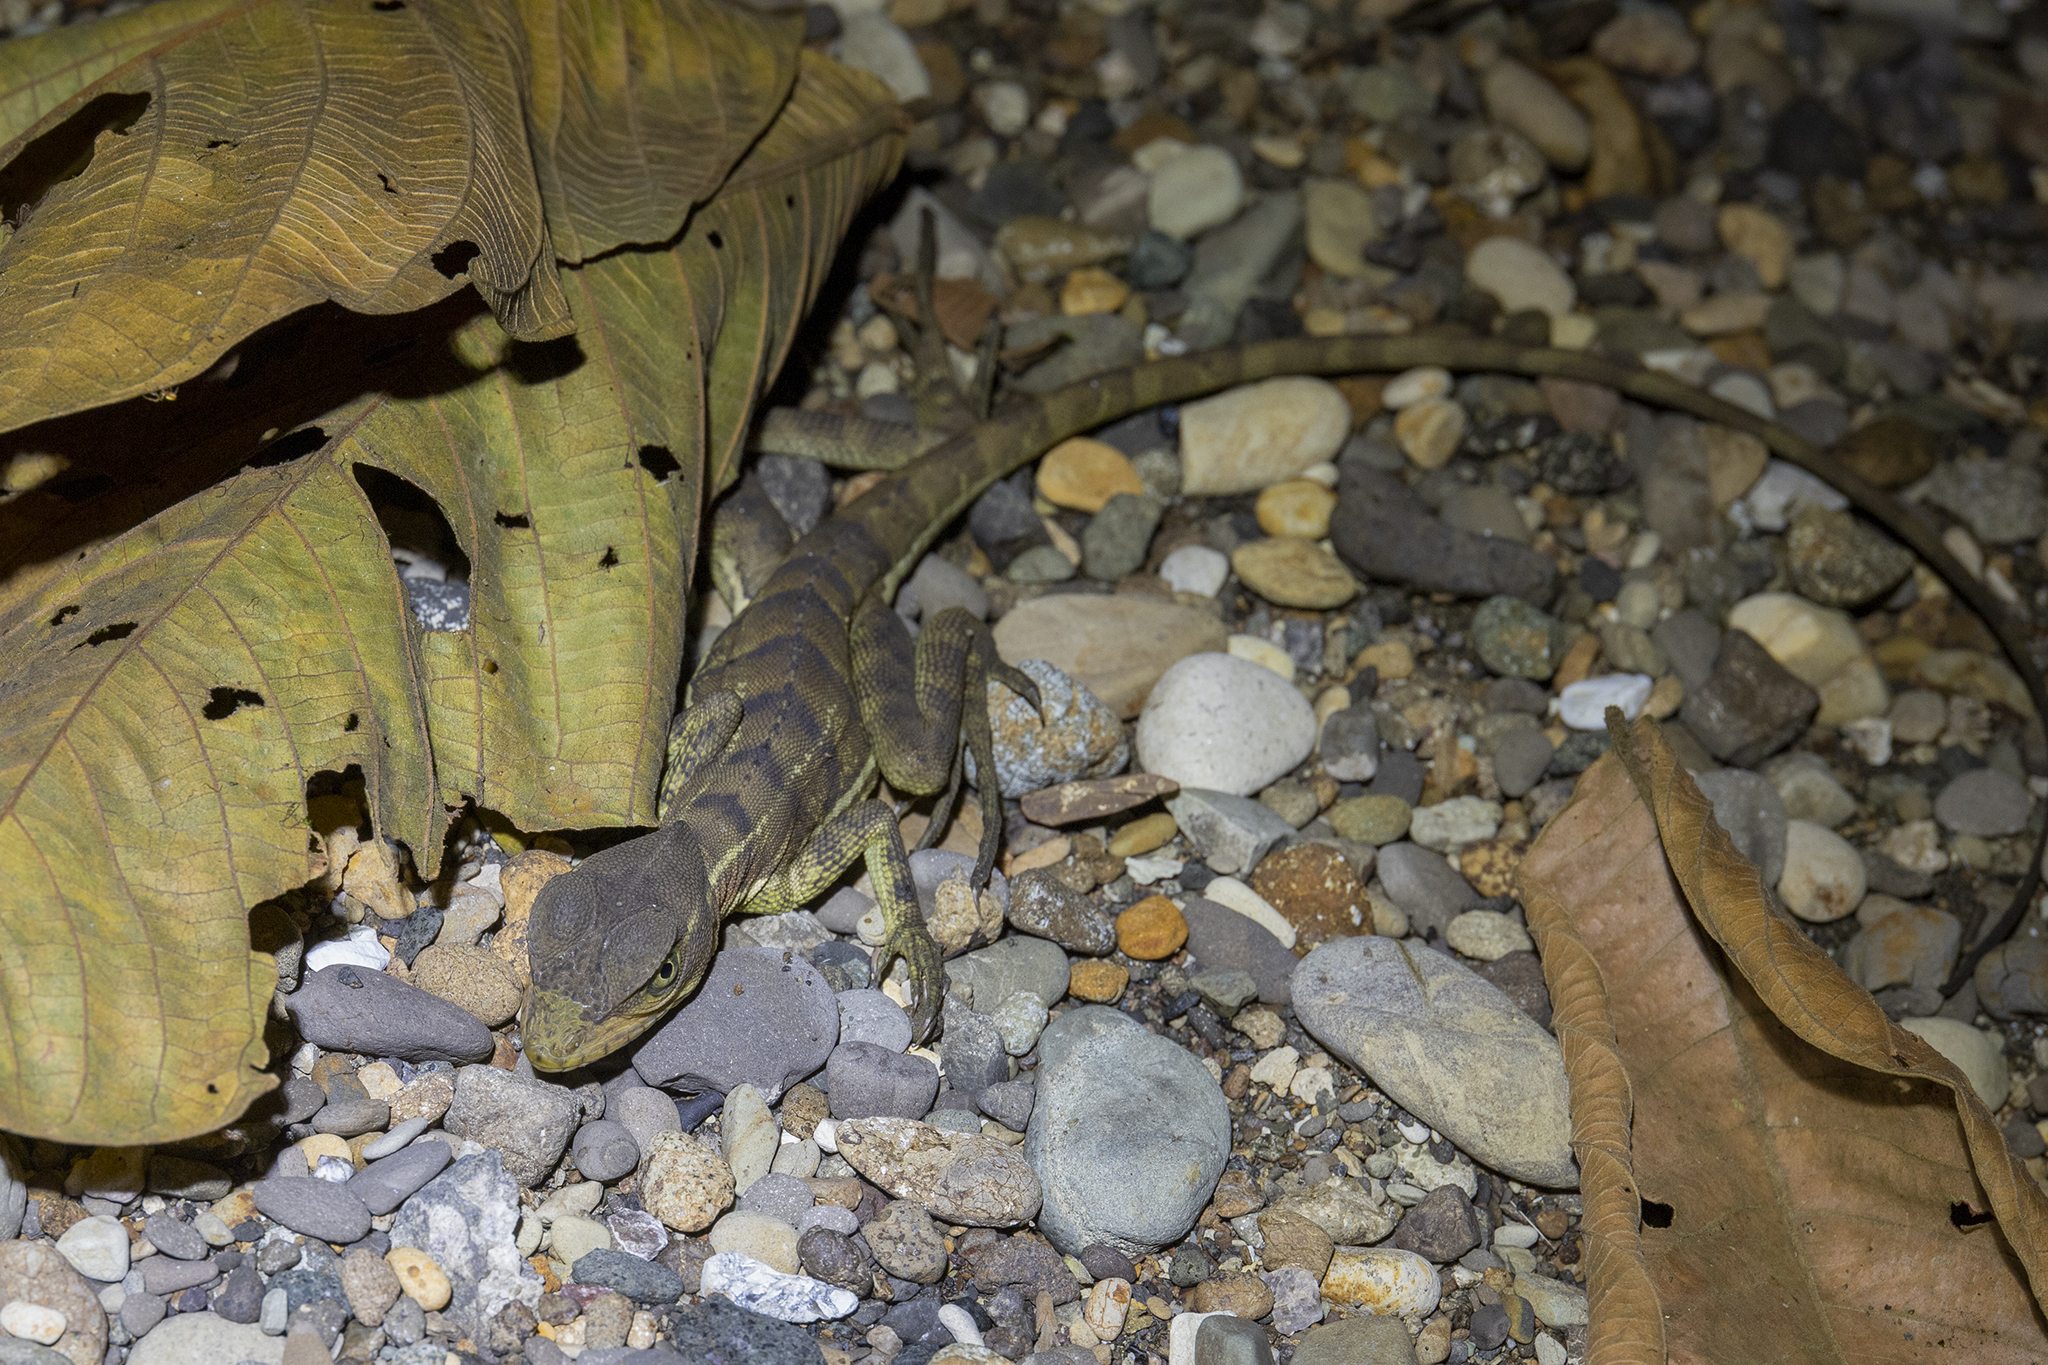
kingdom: Animalia
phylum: Chordata
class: Squamata
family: Corytophanidae
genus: Basiliscus
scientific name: Basiliscus galeritus
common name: Western basilisk
